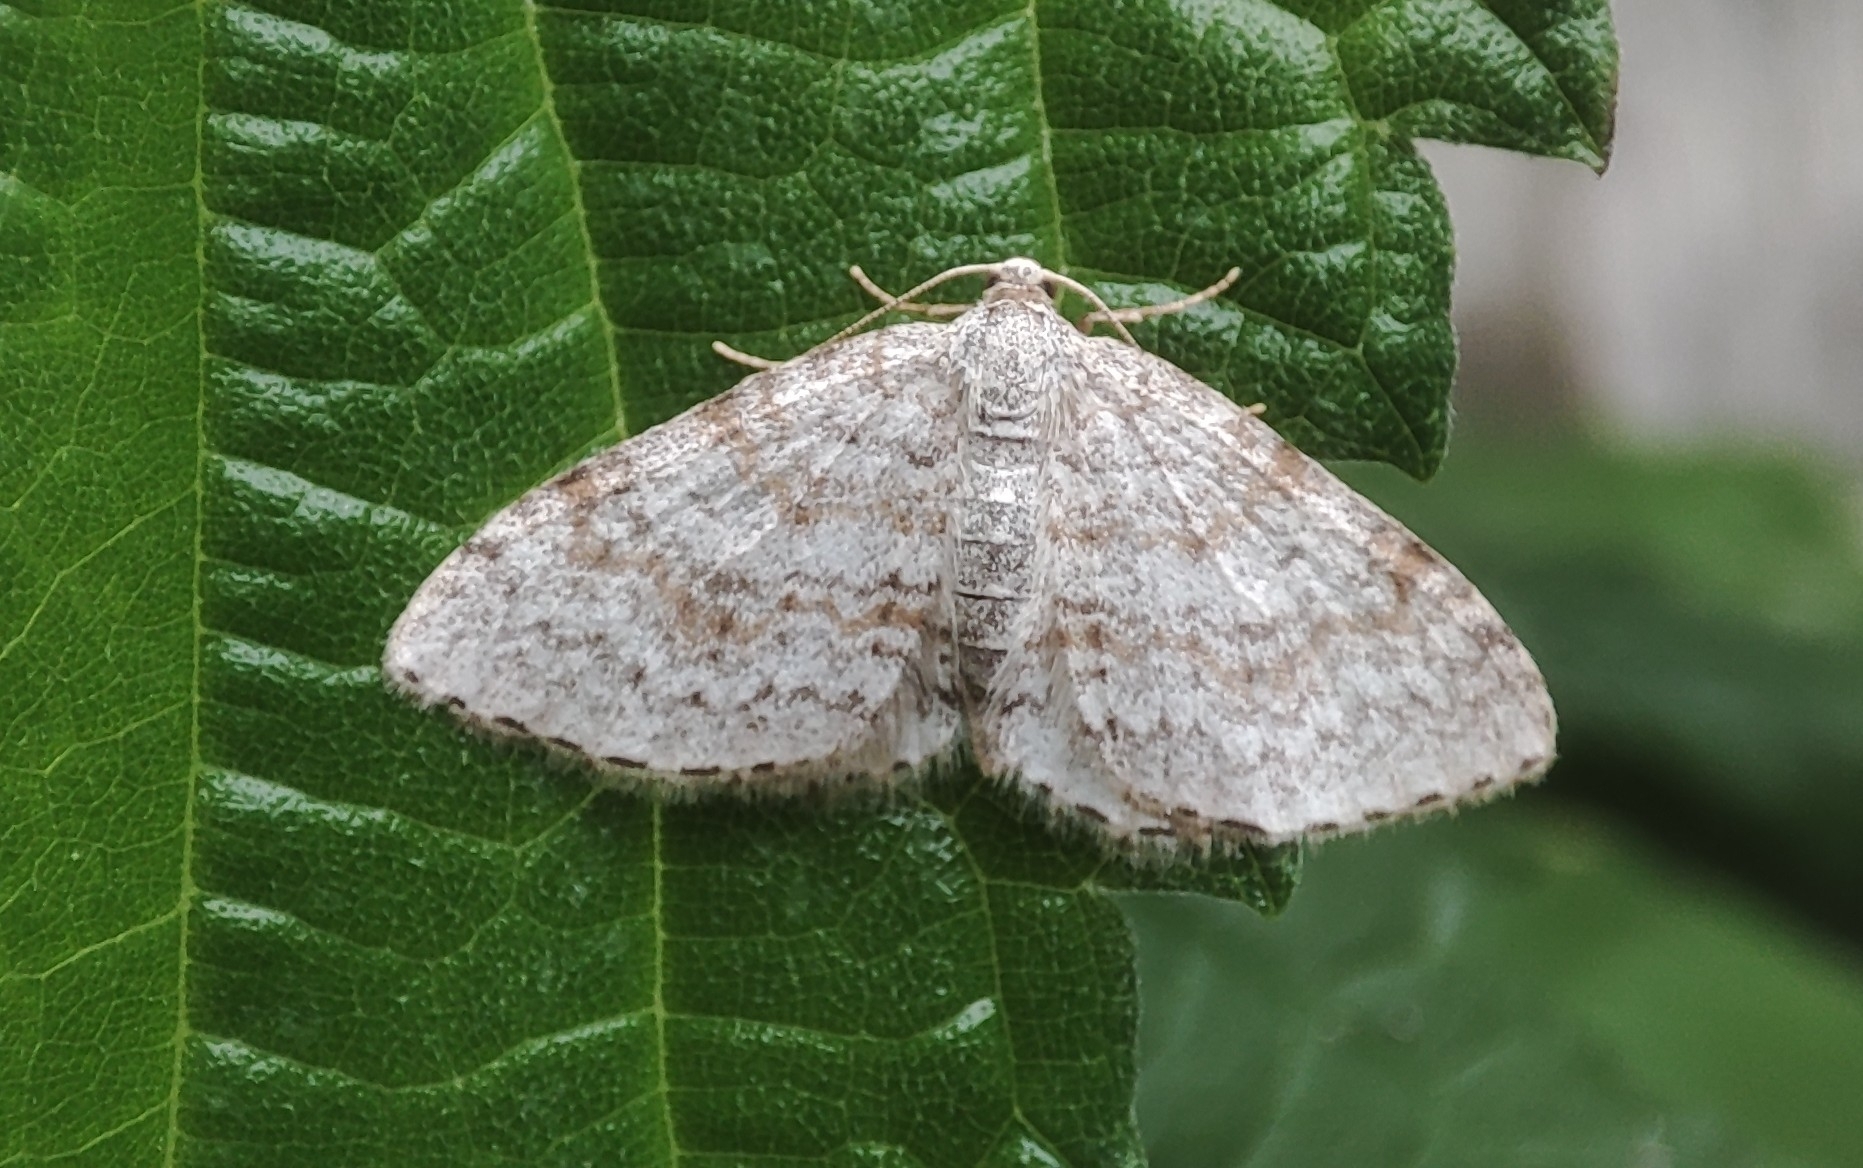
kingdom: Animalia
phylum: Arthropoda
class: Insecta
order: Lepidoptera
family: Geometridae
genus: Hydrelia
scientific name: Hydrelia sylvata
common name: Waved carpet
